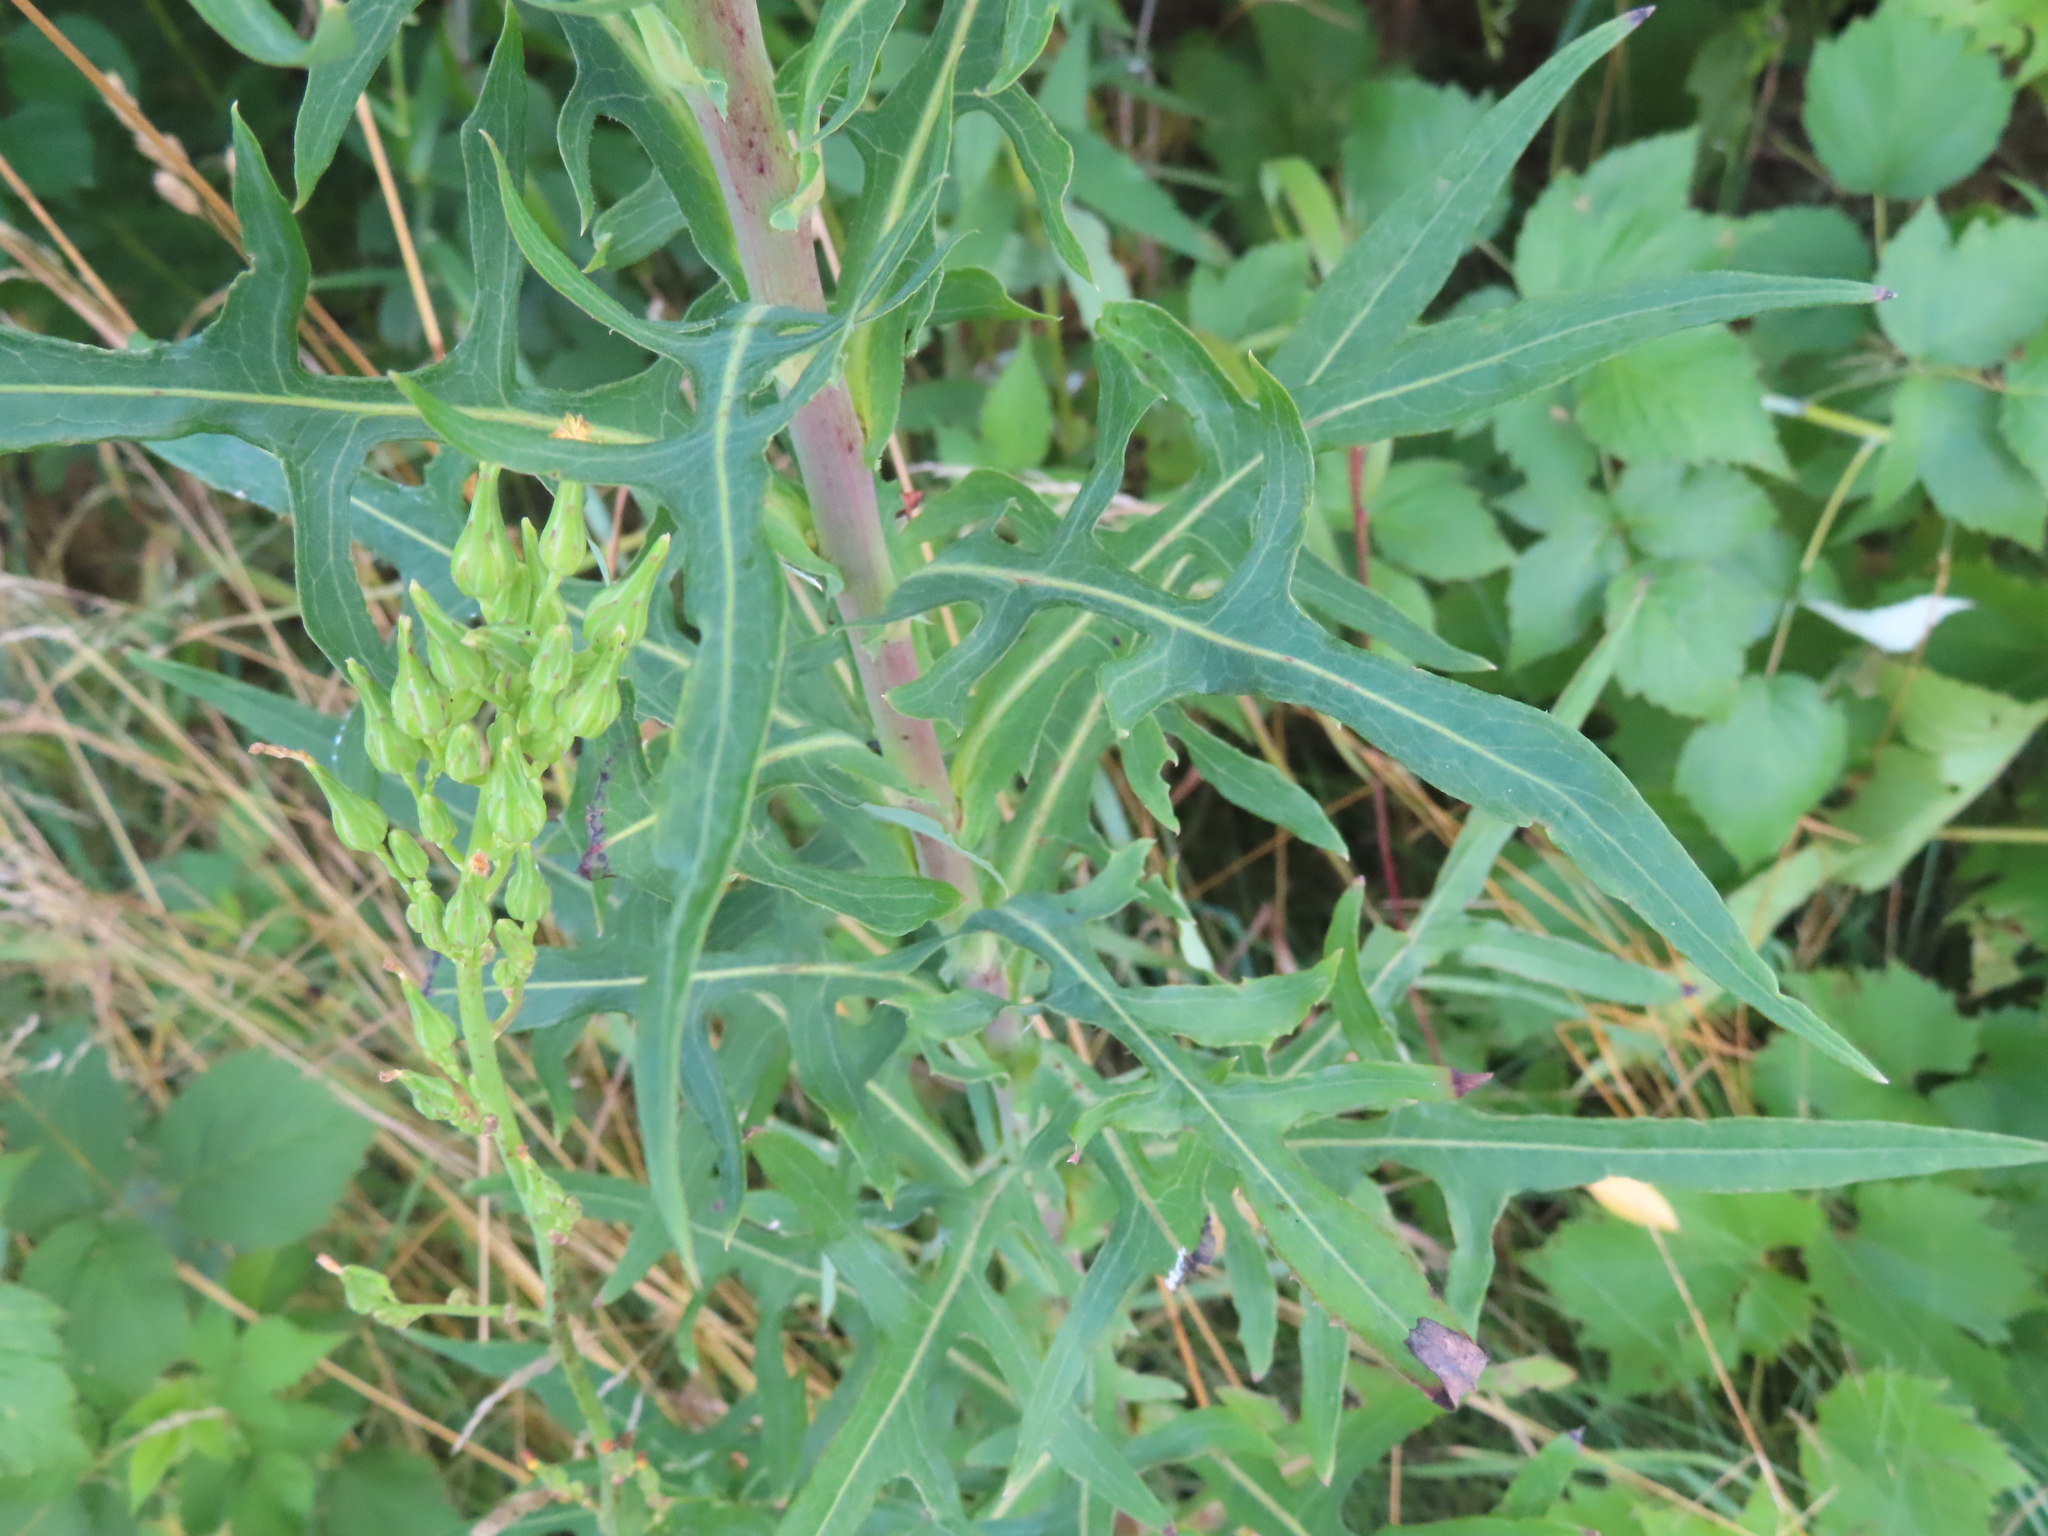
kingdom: Plantae
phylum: Tracheophyta
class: Magnoliopsida
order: Asterales
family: Asteraceae
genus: Lactuca
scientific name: Lactuca canadensis
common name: Canada lettuce
